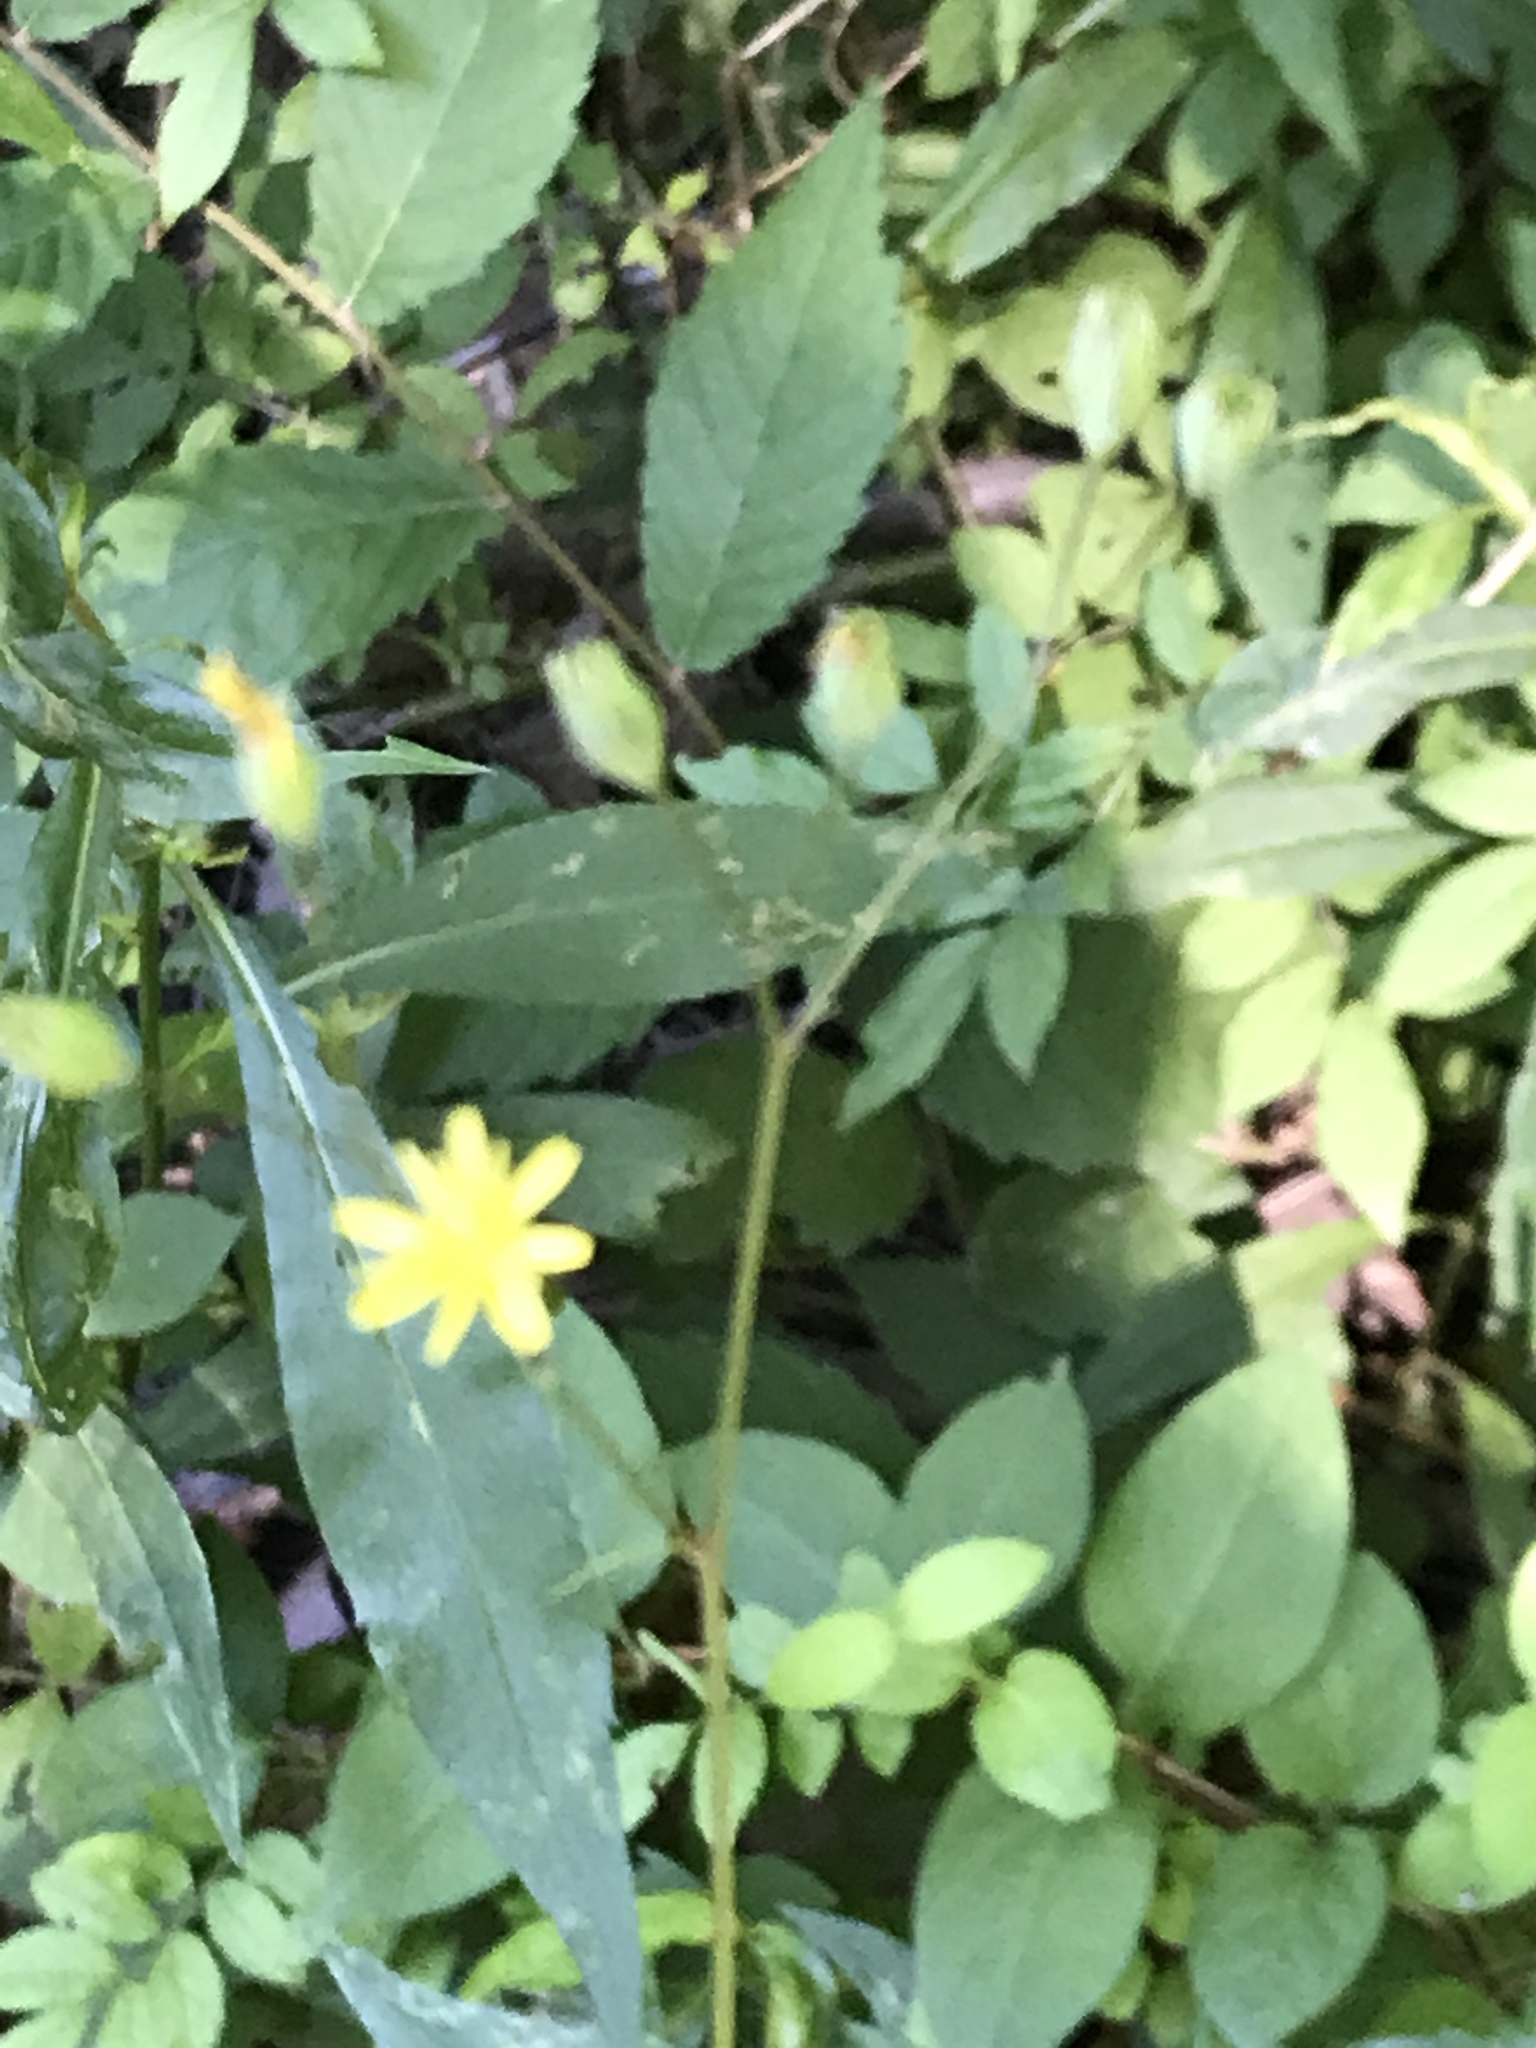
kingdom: Plantae
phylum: Tracheophyta
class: Magnoliopsida
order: Asterales
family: Asteraceae
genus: Lapsana
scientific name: Lapsana communis
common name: Nipplewort
